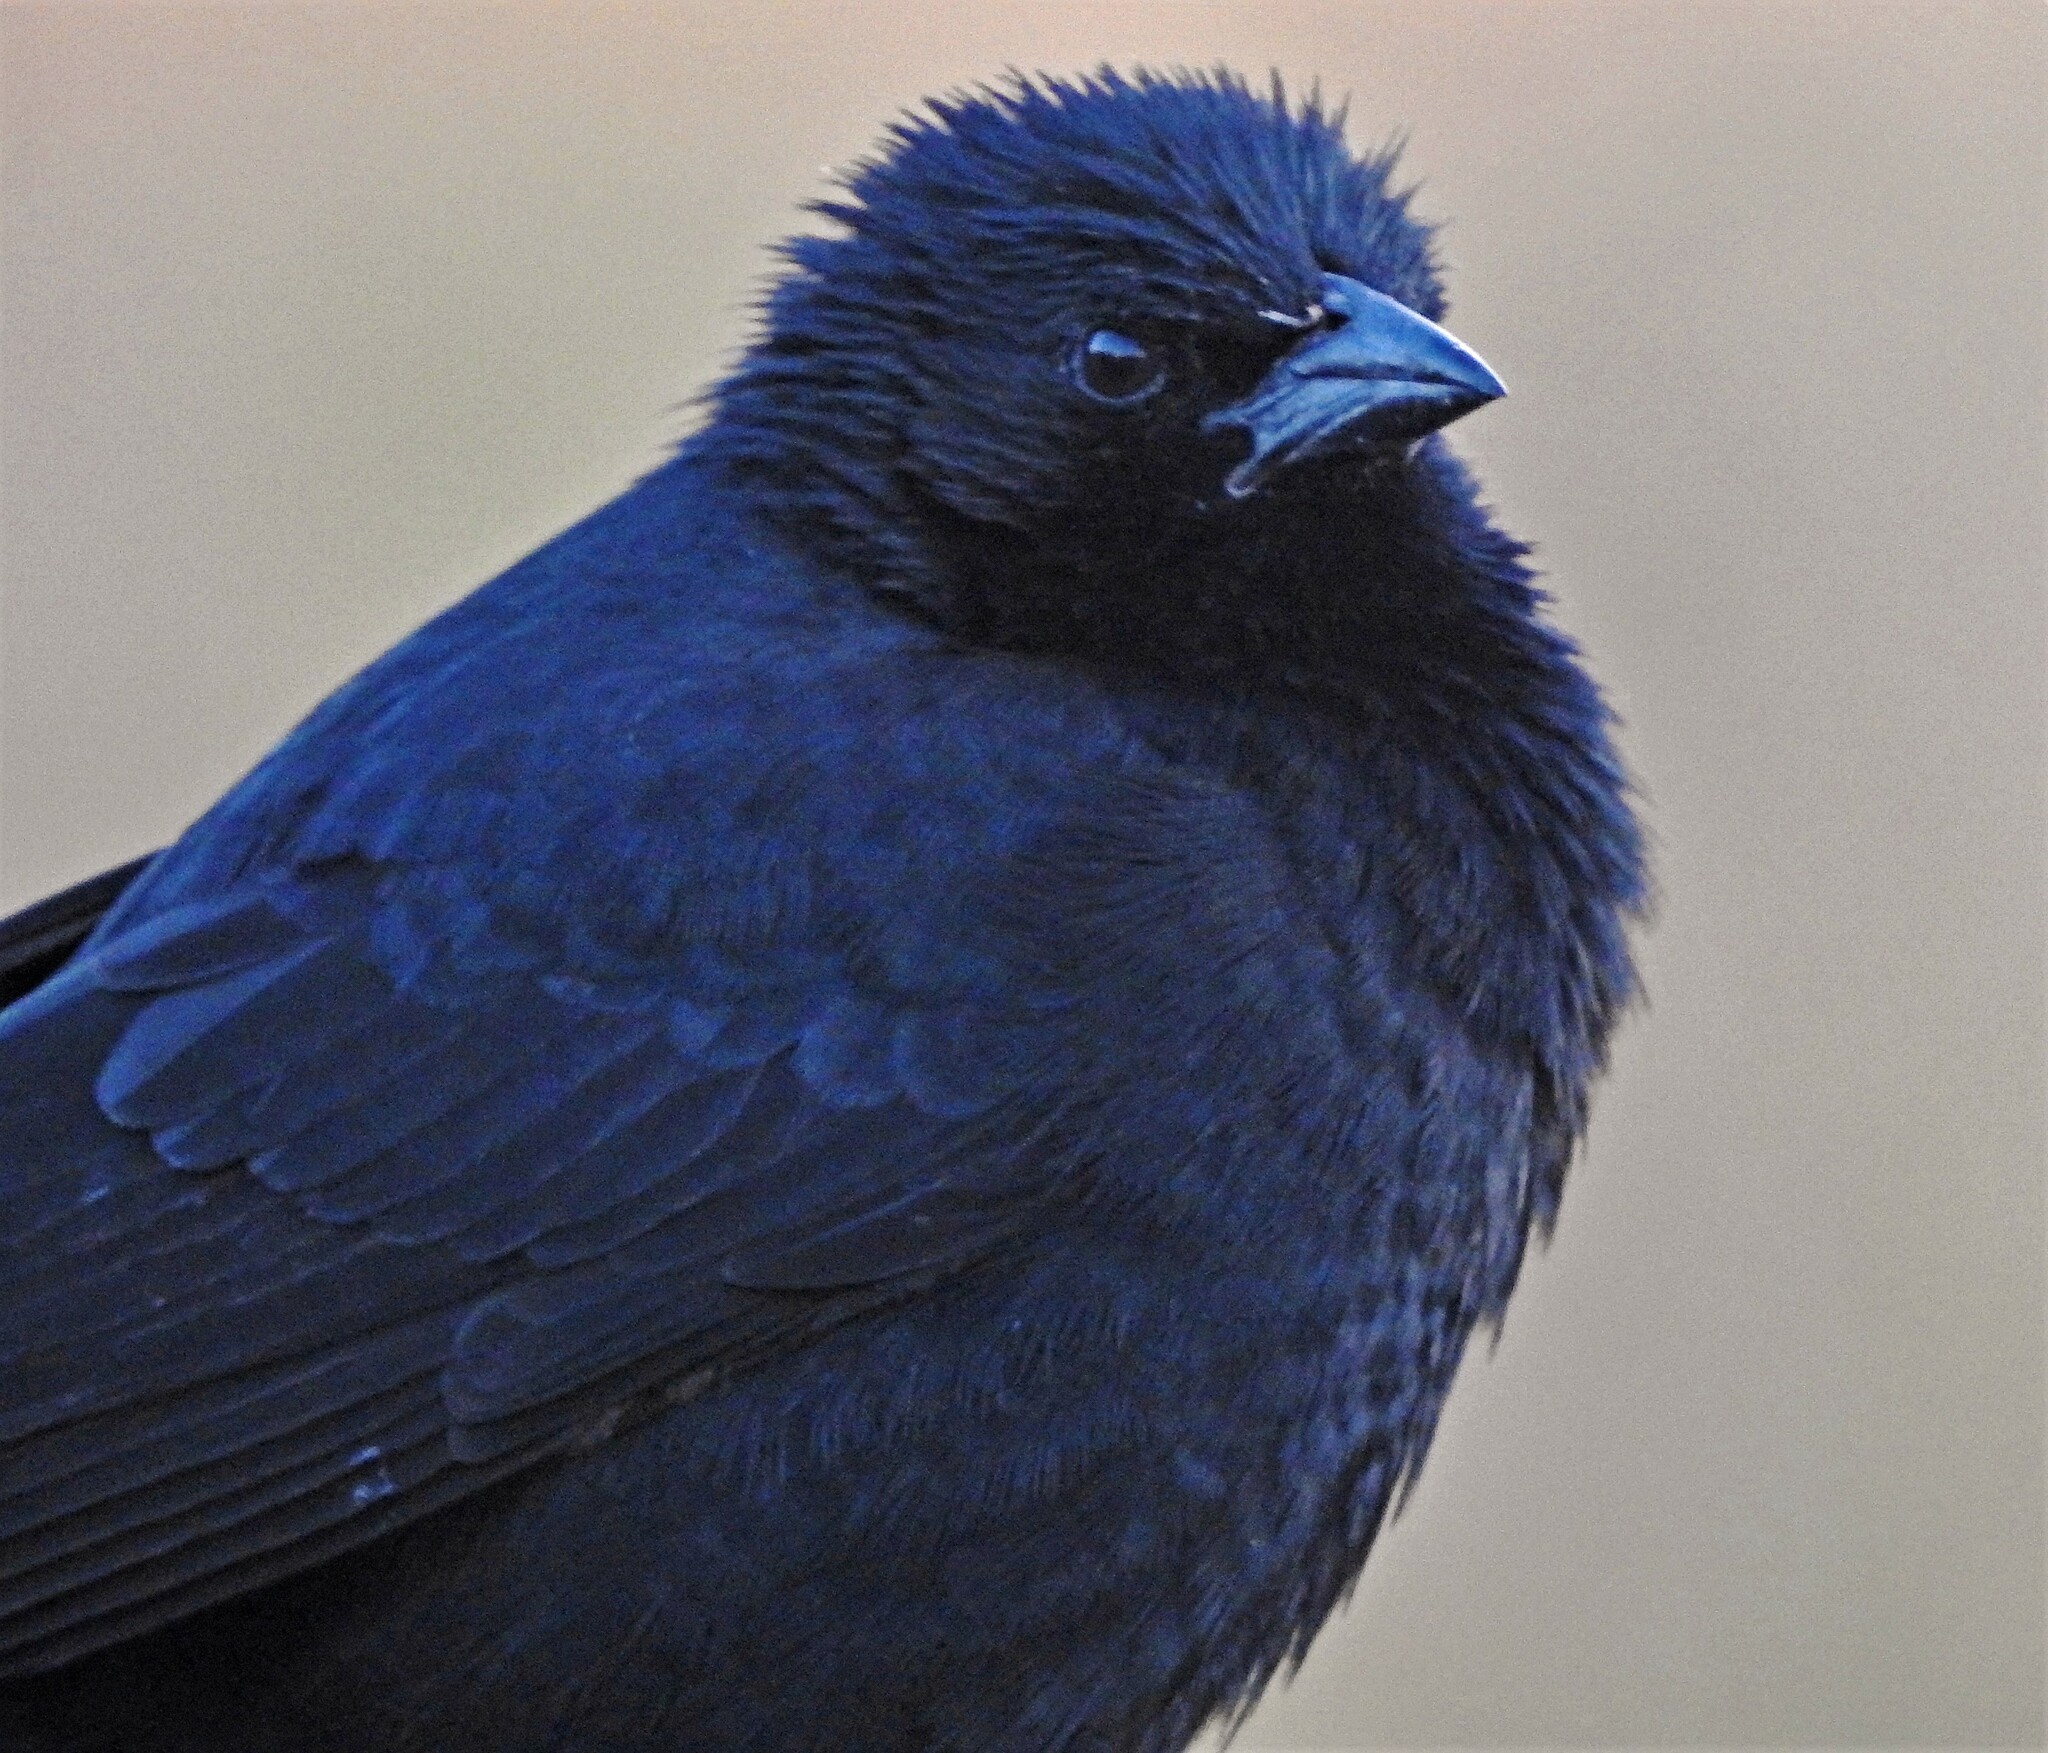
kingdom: Animalia
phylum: Chordata
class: Aves
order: Passeriformes
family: Icteridae
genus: Gnorimopsar
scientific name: Gnorimopsar chopi
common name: Chopi blackbird
